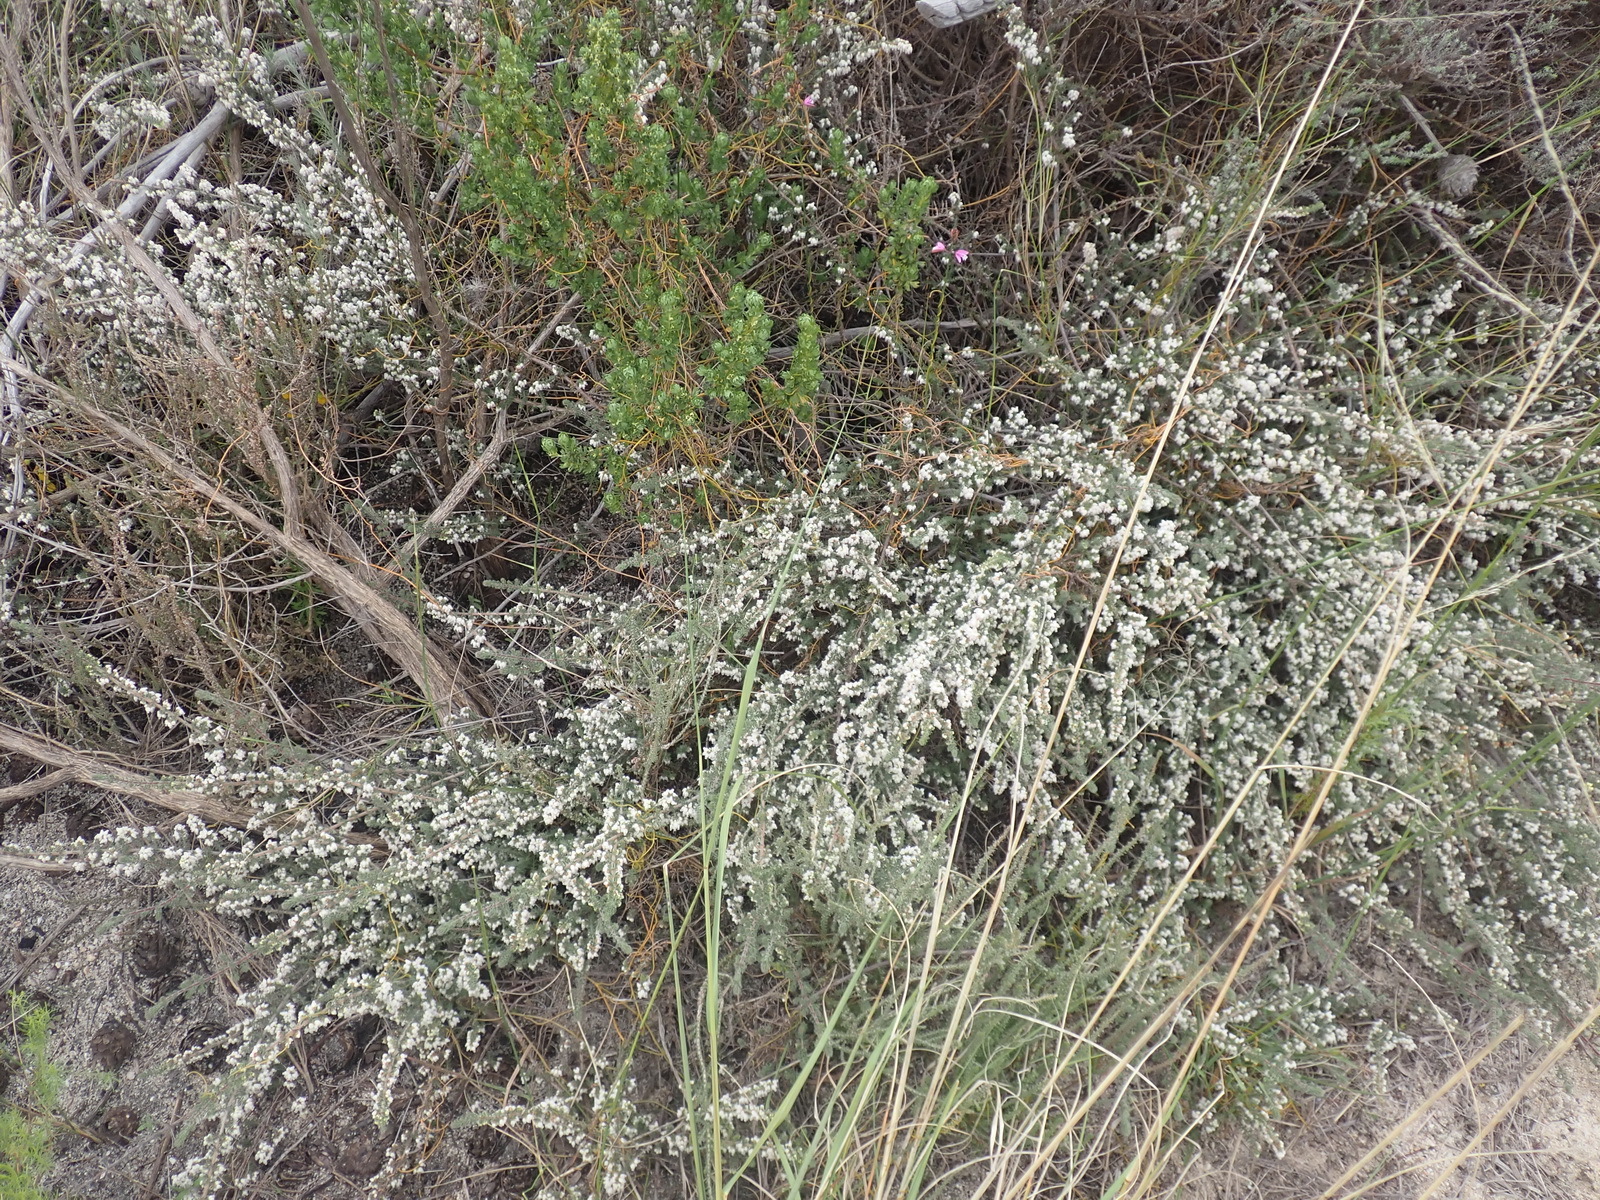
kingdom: Plantae
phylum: Tracheophyta
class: Magnoliopsida
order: Ericales
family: Ericaceae
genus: Erica
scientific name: Erica totta
